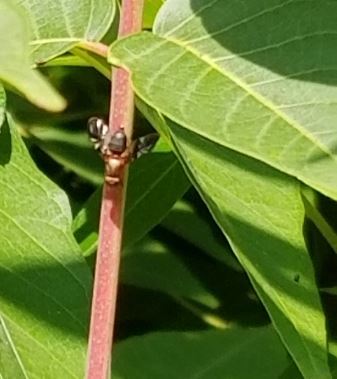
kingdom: Animalia
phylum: Arthropoda
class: Insecta
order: Diptera
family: Ulidiidae
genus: Delphinia
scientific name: Delphinia picta
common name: Common picture-winged fly
